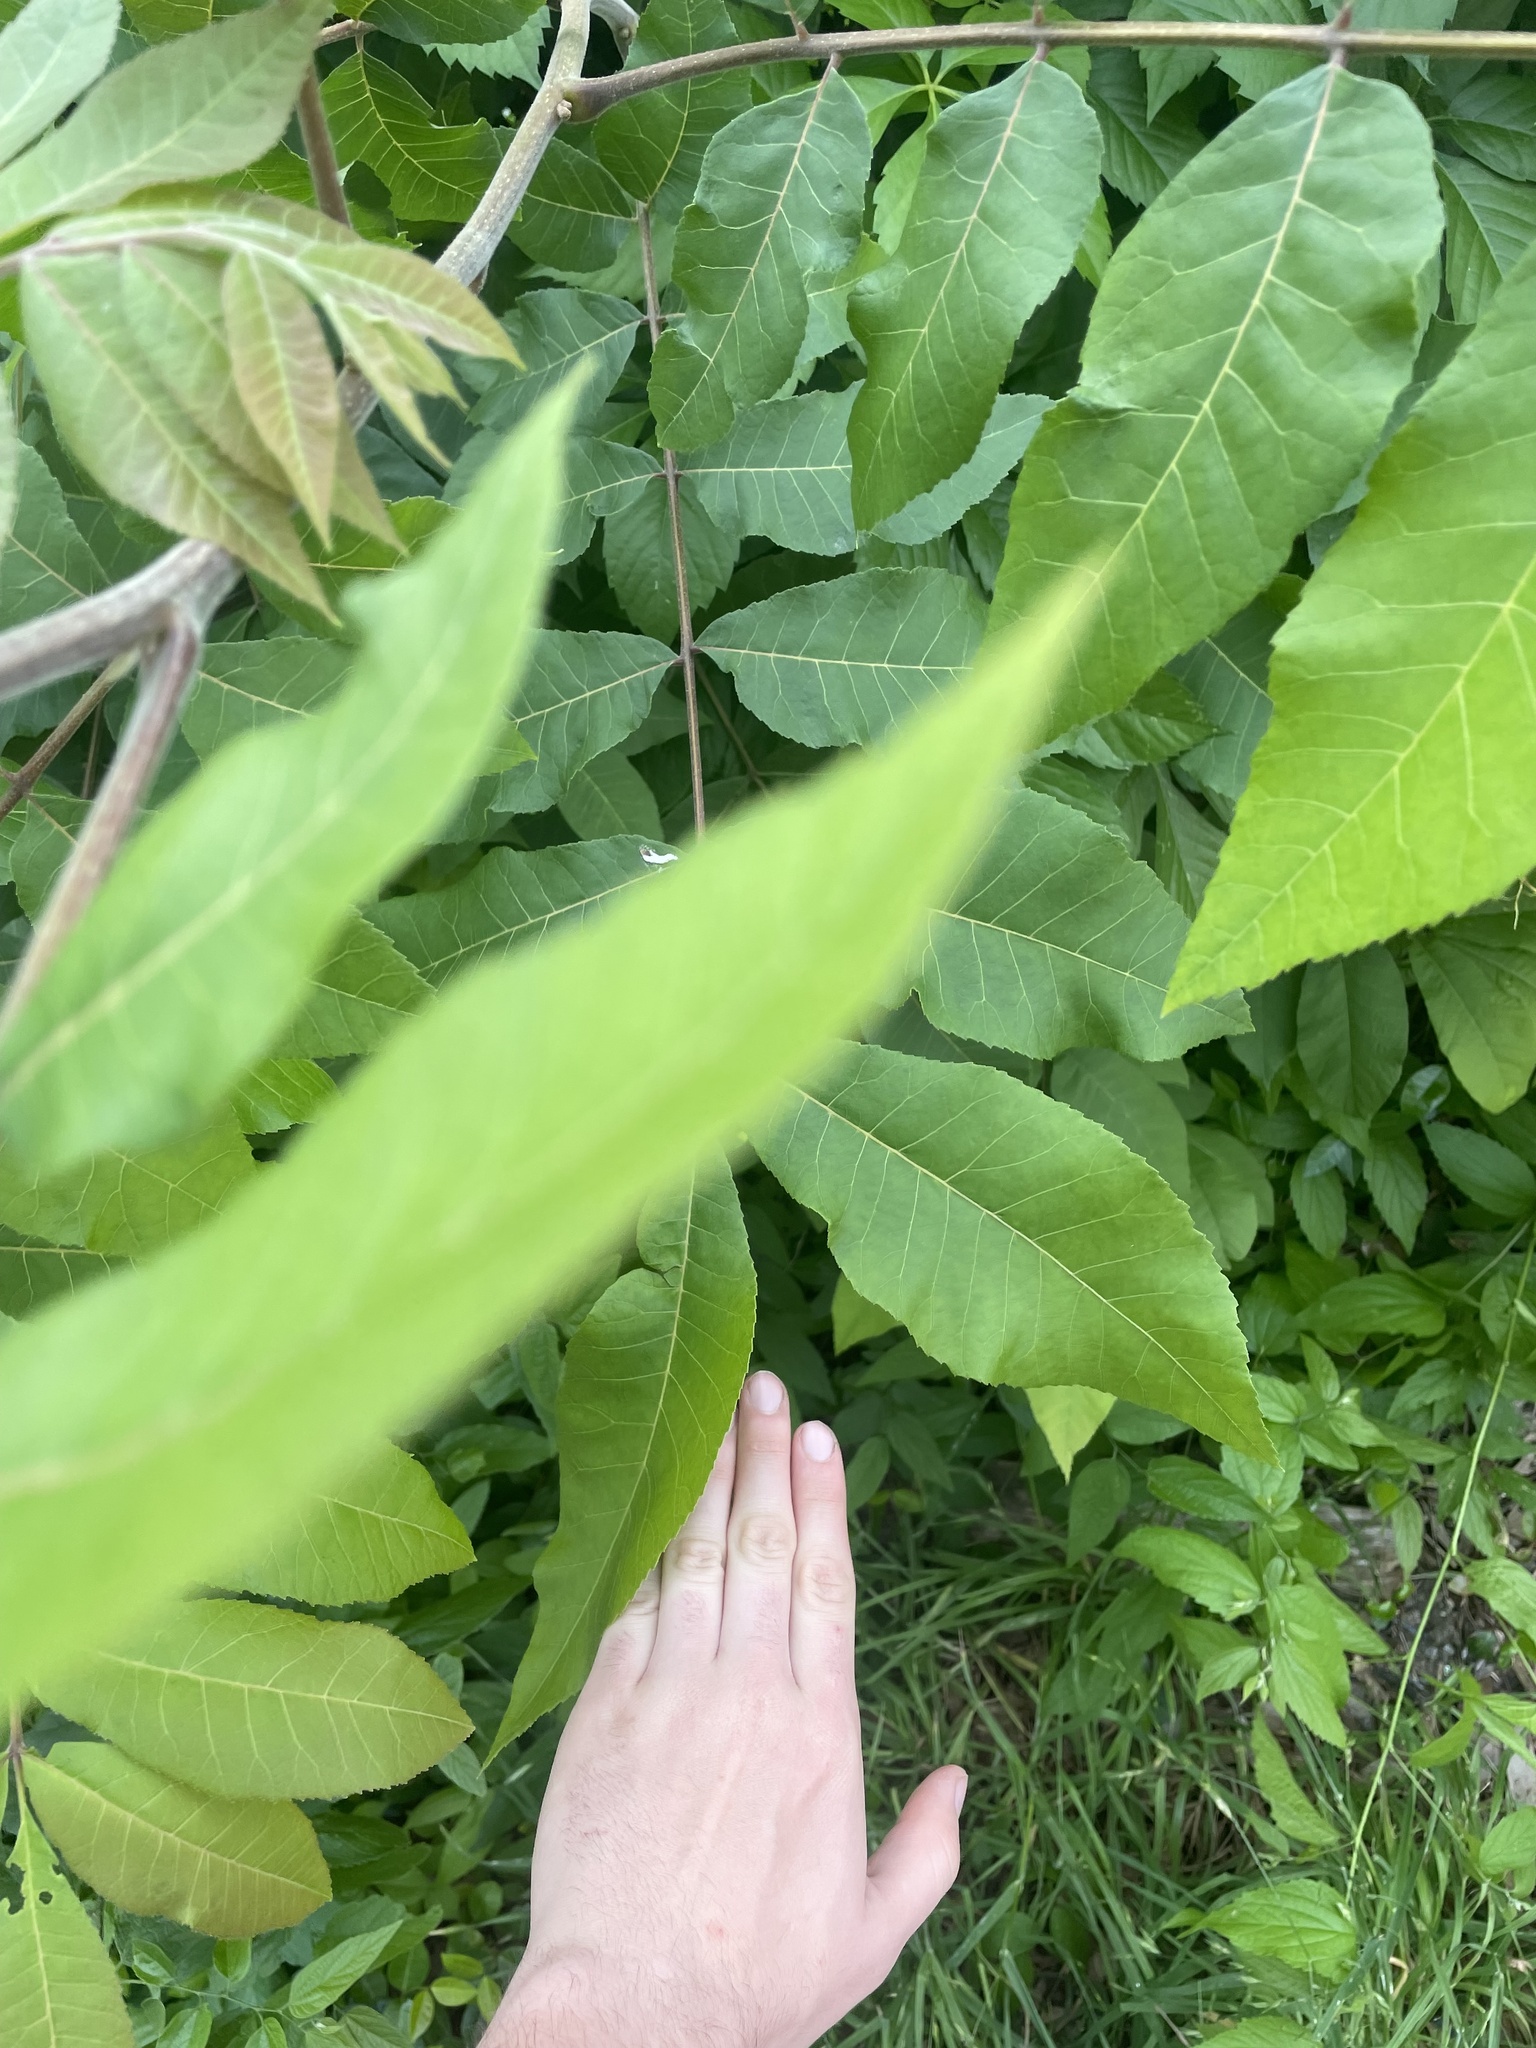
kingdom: Plantae
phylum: Tracheophyta
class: Magnoliopsida
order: Fagales
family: Juglandaceae
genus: Carya
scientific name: Carya illinoinensis
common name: Pecan
